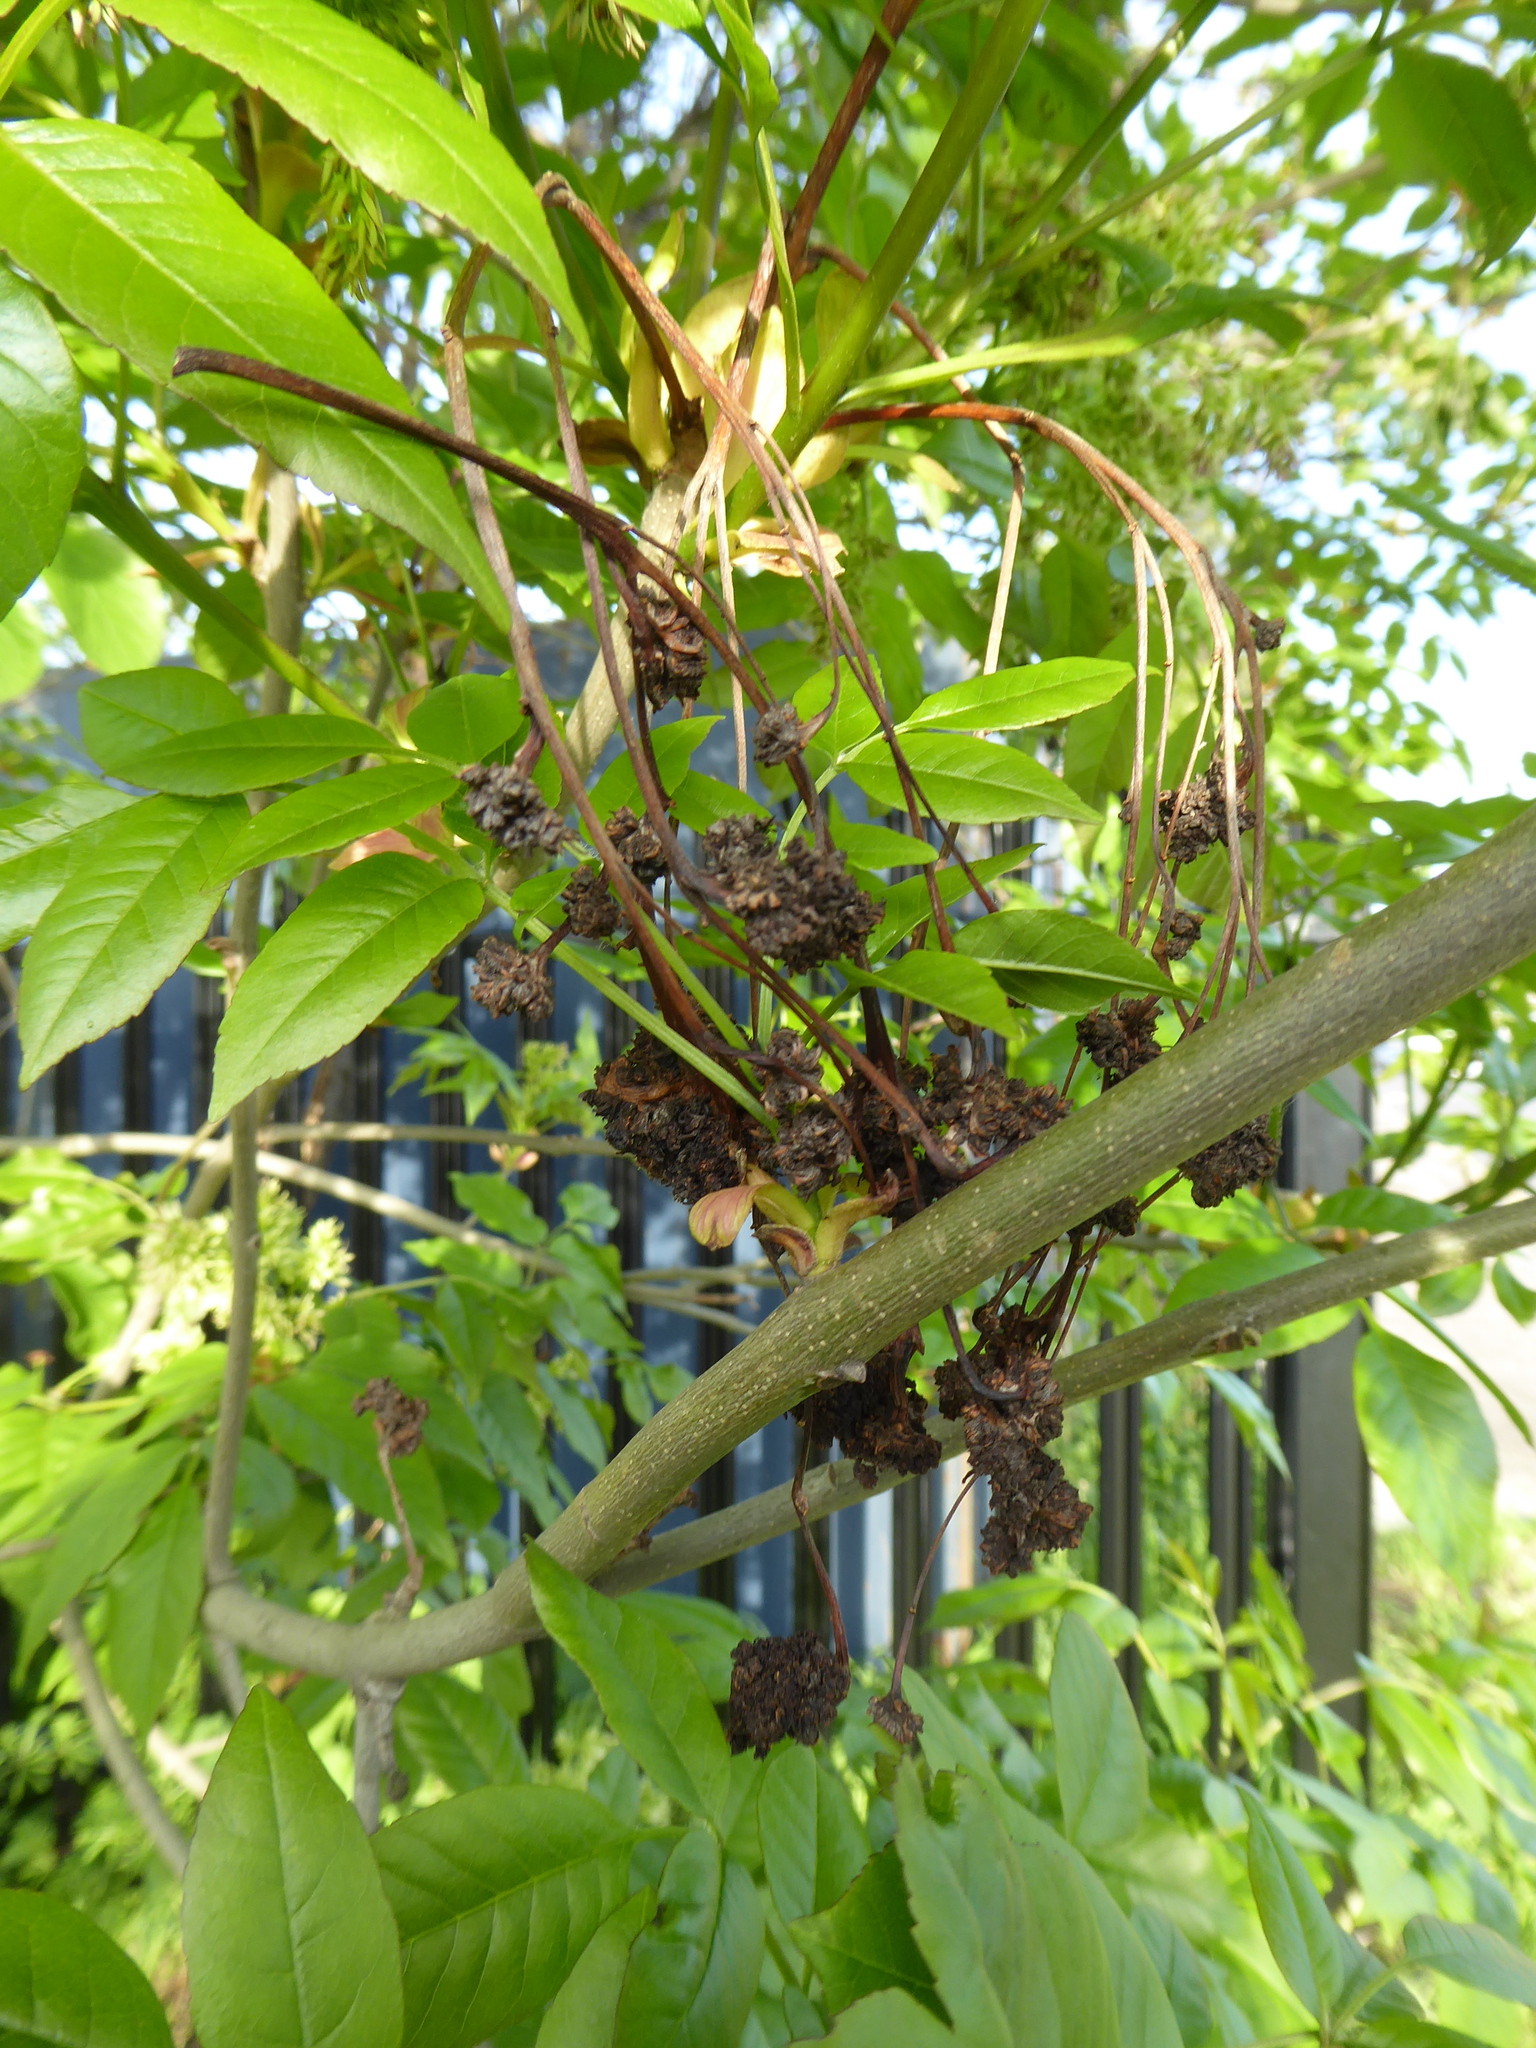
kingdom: Animalia
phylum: Arthropoda
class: Arachnida
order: Trombidiformes
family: Eriophyidae
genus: Aceria
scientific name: Aceria fraxinivora
